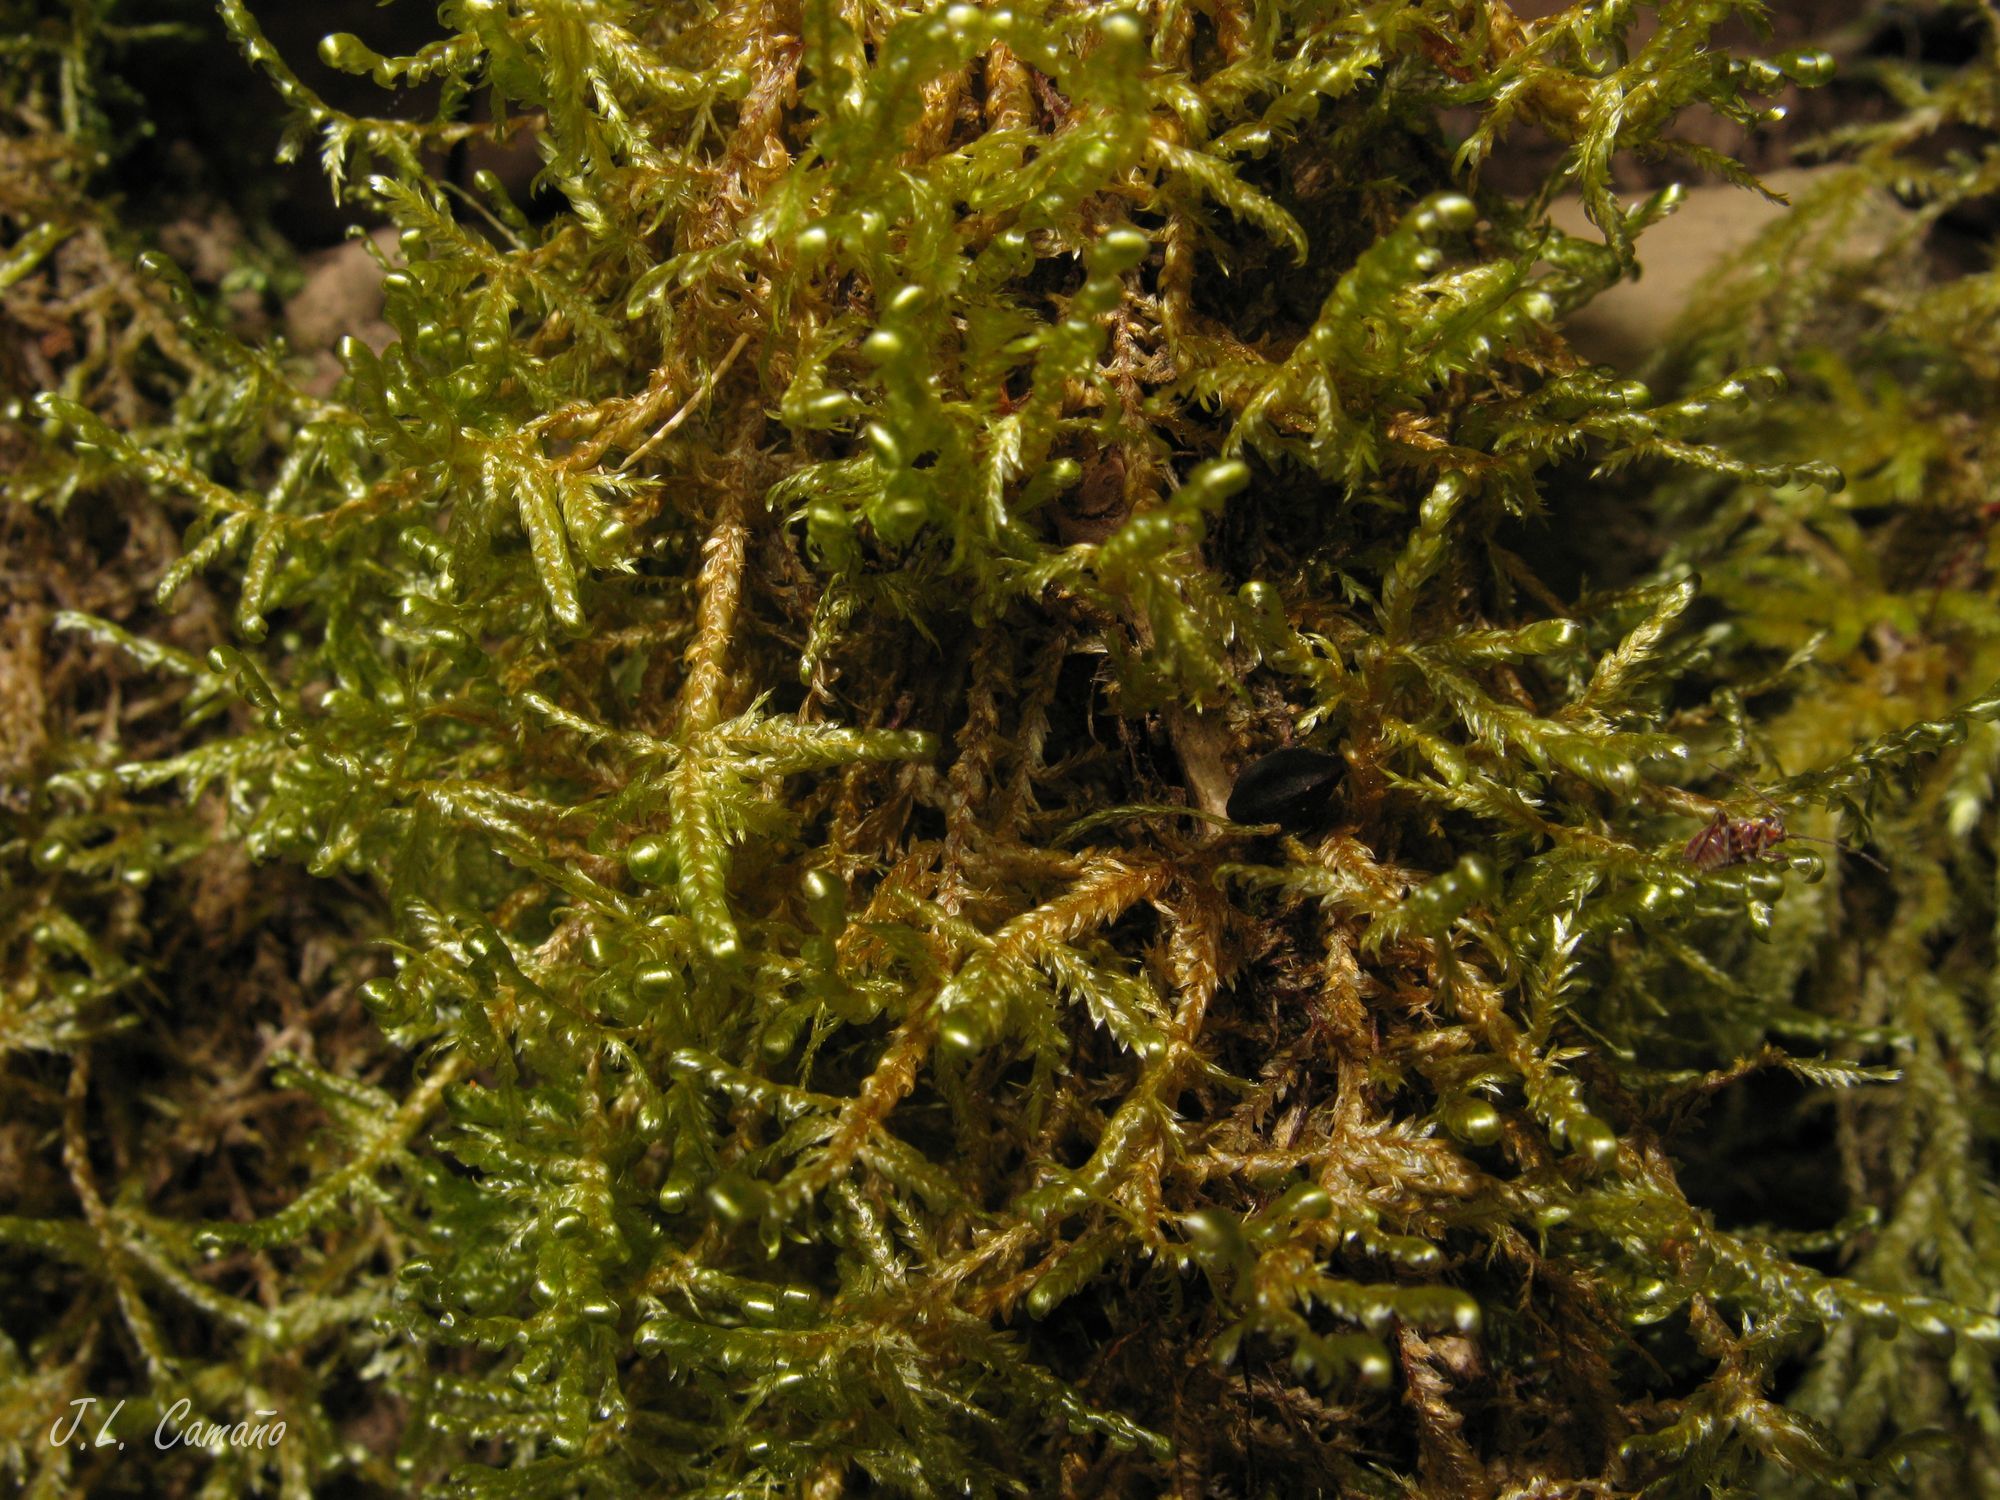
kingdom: Plantae
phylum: Bryophyta
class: Bryopsida
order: Hypnales
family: Neckeraceae
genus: Alleniella
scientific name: Alleniella complanata
